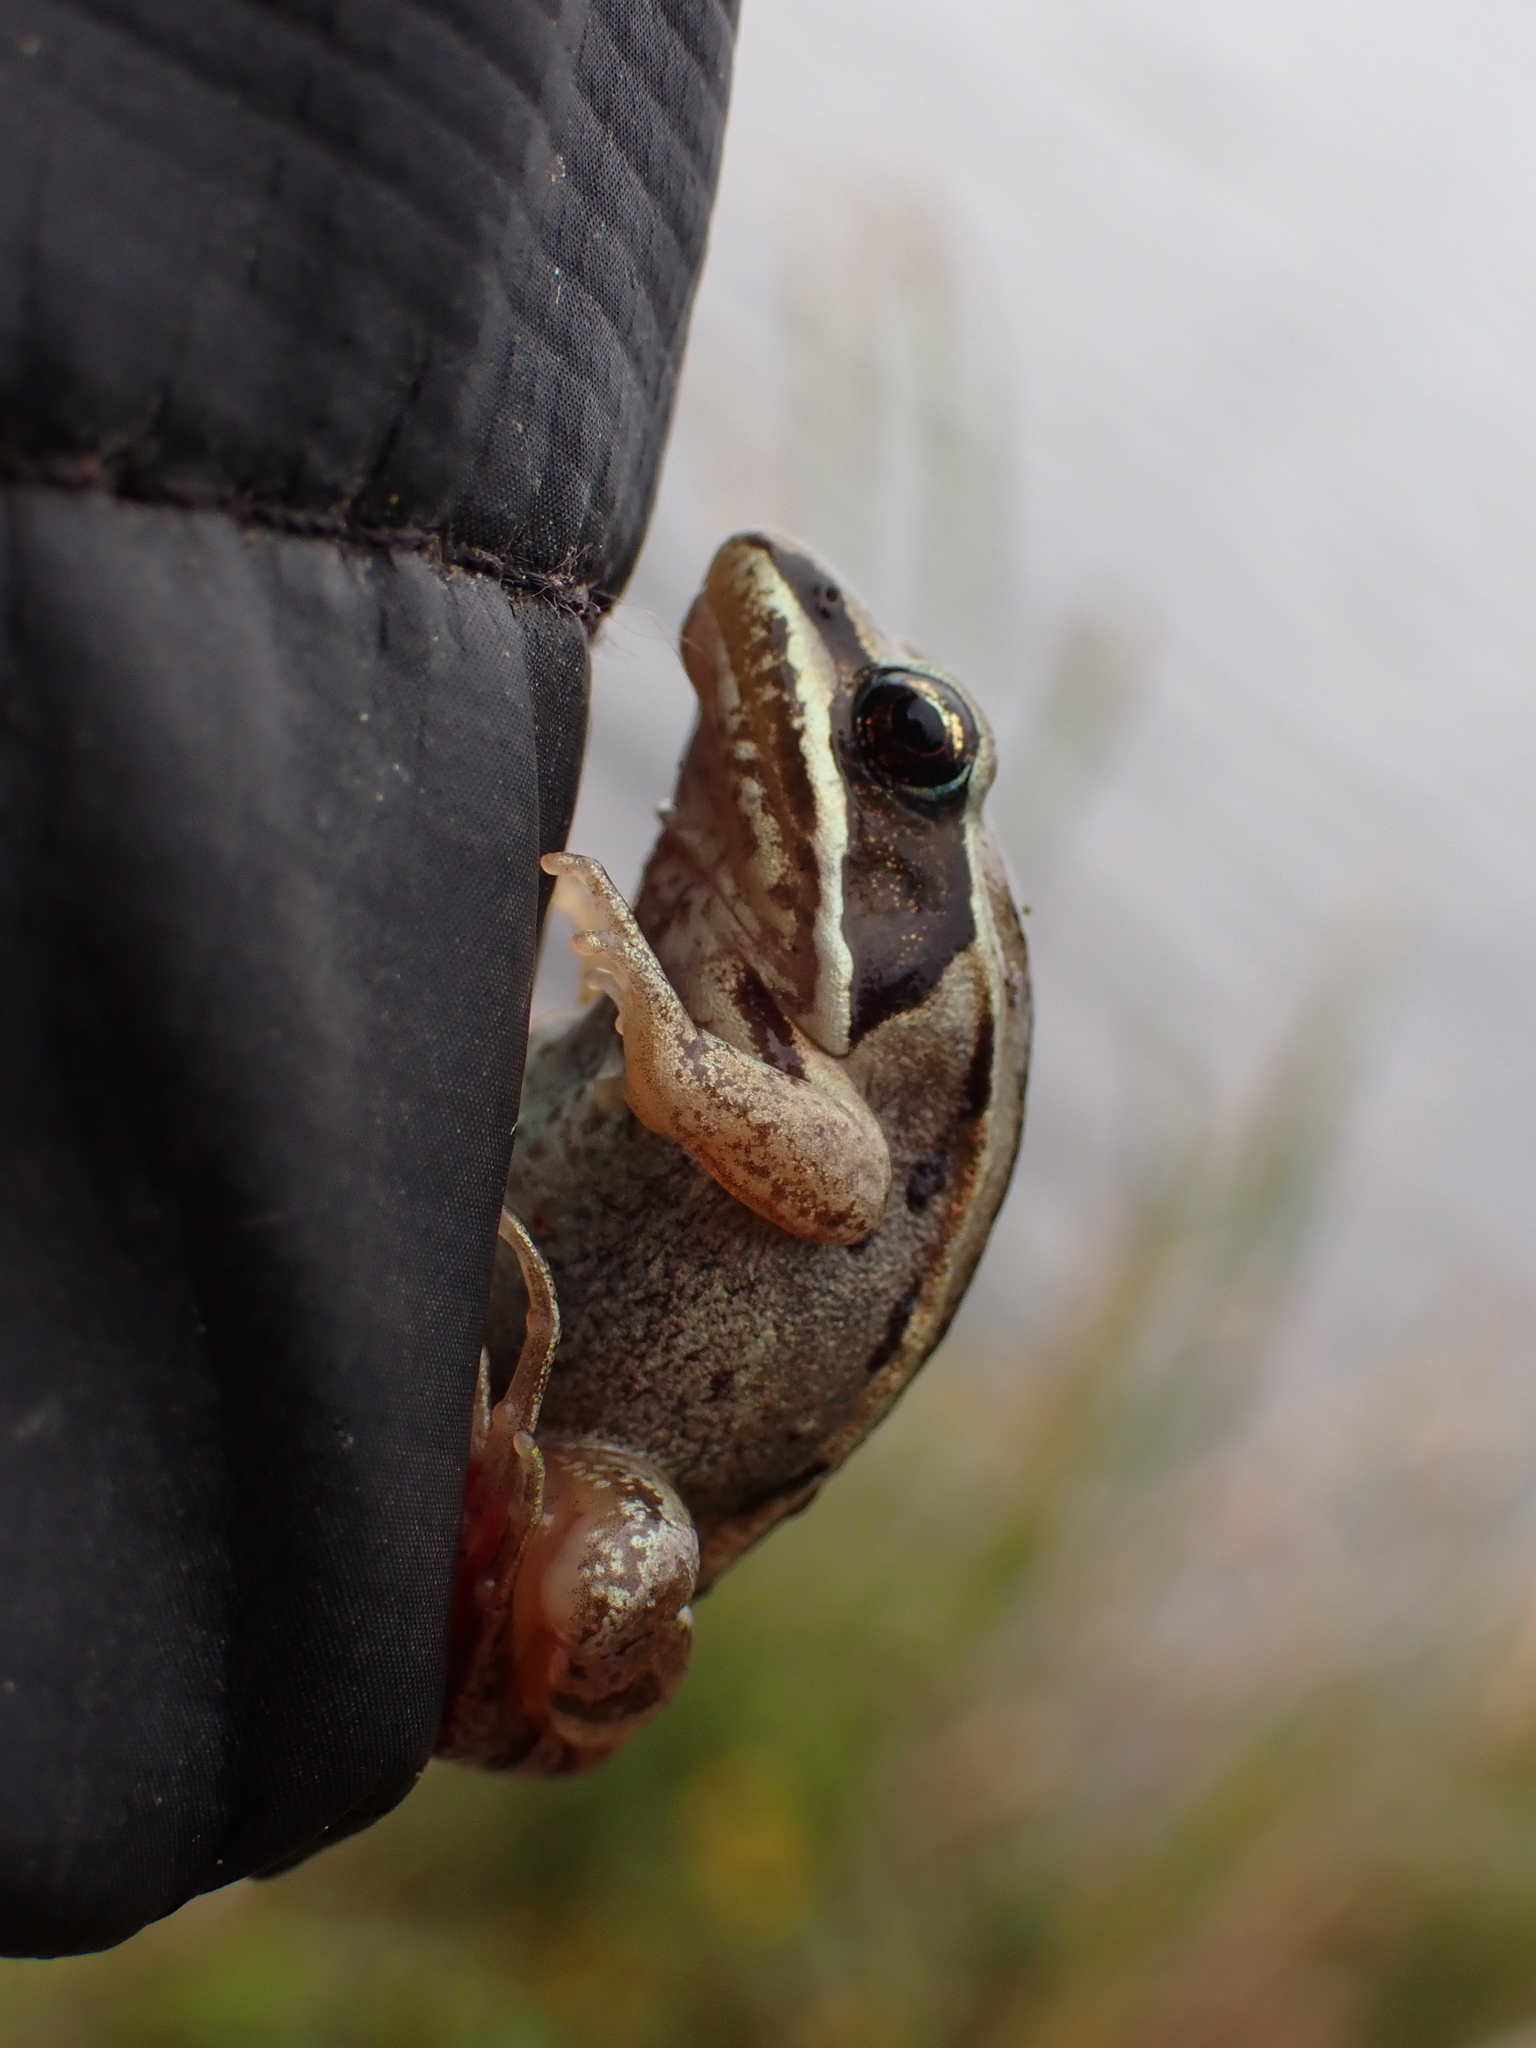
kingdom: Animalia
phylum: Chordata
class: Amphibia
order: Anura
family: Ranidae
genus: Lithobates
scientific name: Lithobates sylvaticus
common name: Wood frog
